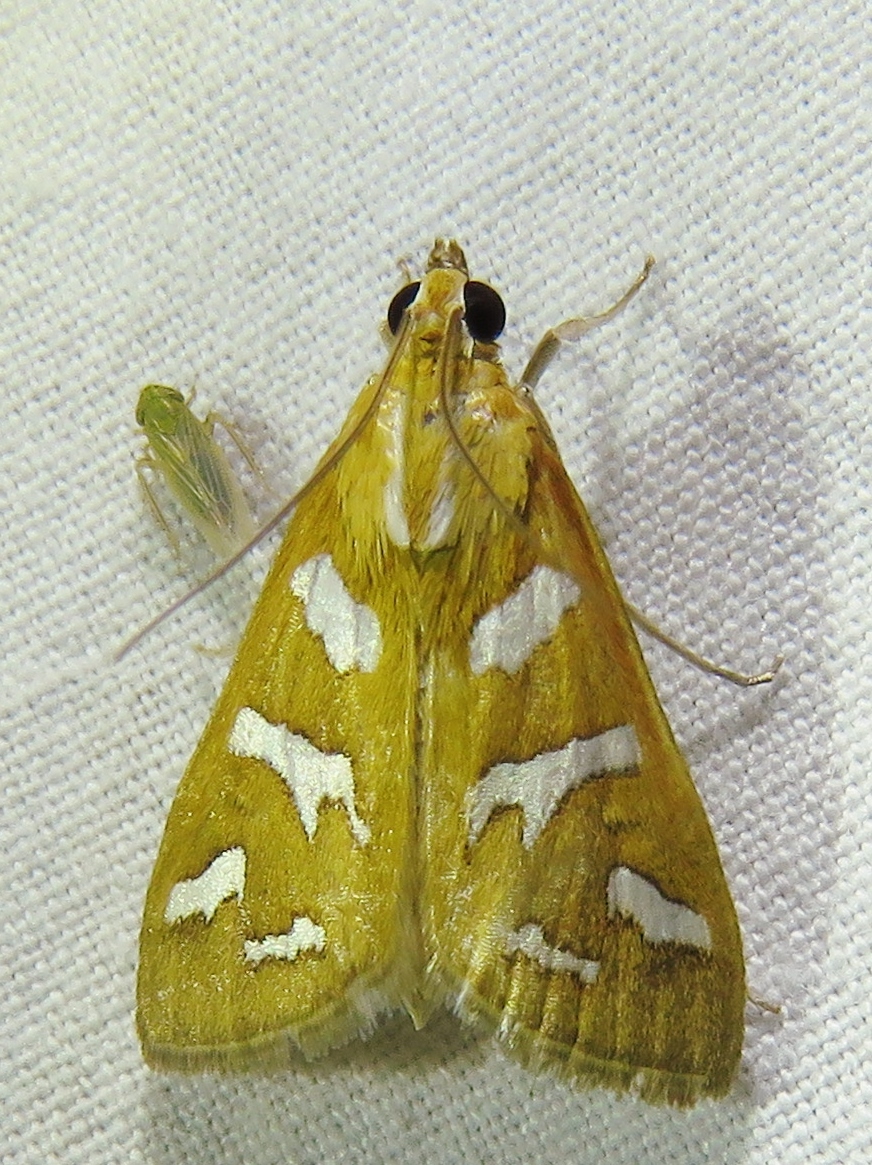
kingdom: Animalia
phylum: Arthropoda
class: Insecta
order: Lepidoptera
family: Crambidae
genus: Diastictis
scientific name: Diastictis fracturalis
